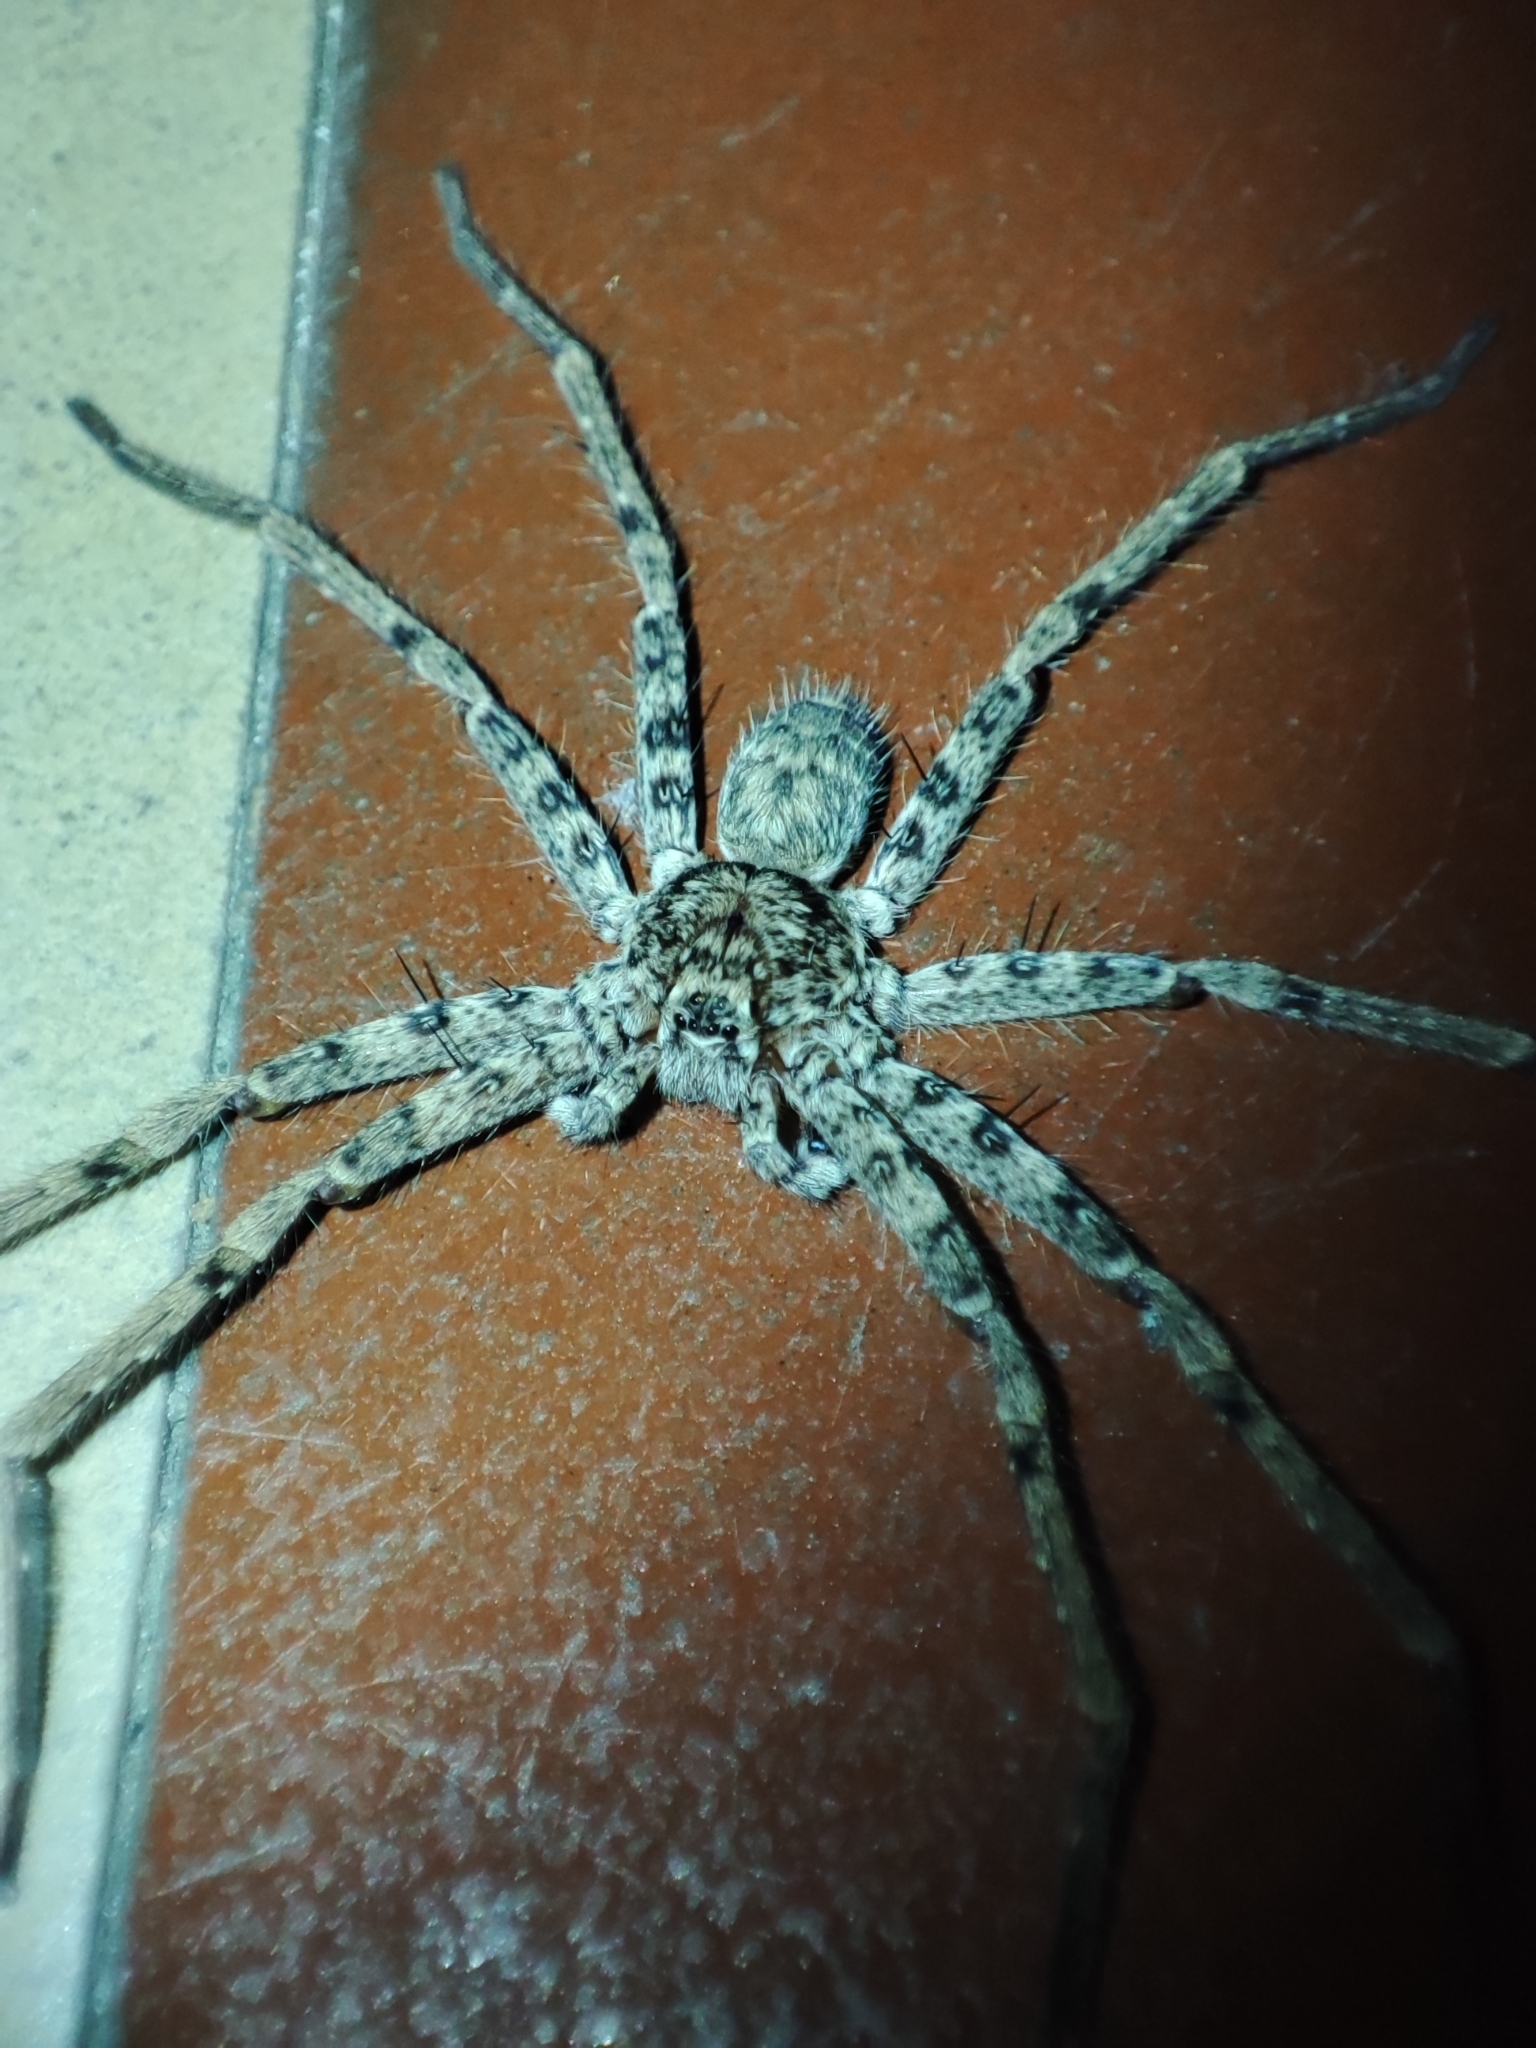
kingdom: Animalia
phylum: Arthropoda
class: Arachnida
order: Araneae
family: Sparassidae
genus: Heteropoda
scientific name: Heteropoda venatoria
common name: Huntsman spider
